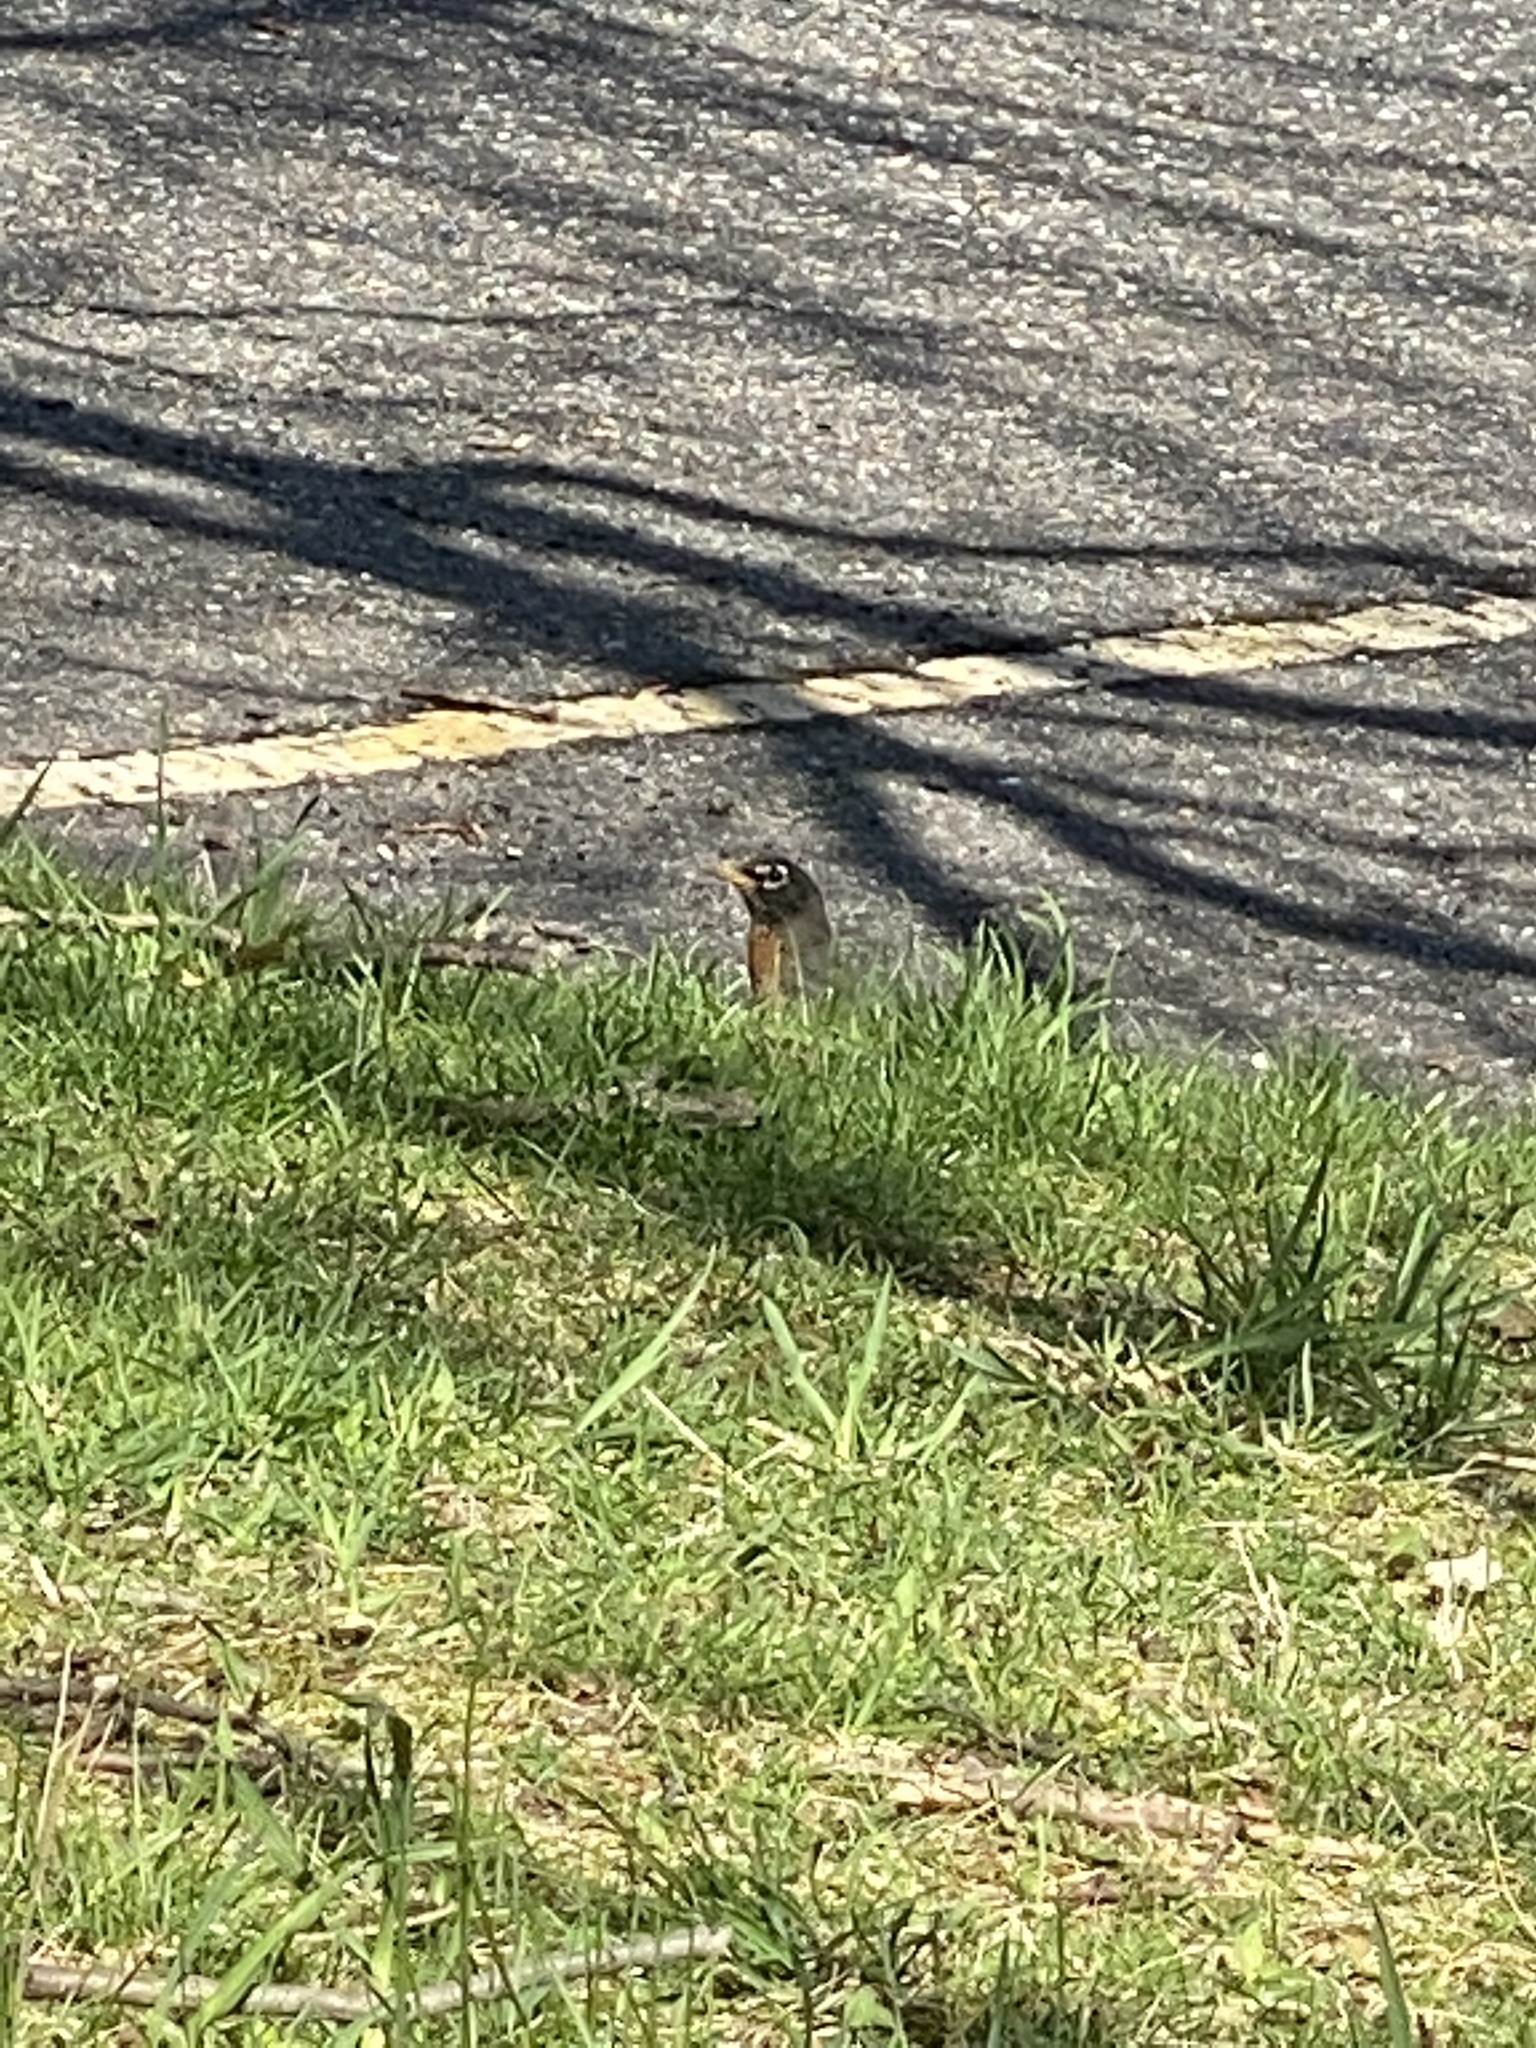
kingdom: Animalia
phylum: Chordata
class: Aves
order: Passeriformes
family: Turdidae
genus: Turdus
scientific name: Turdus migratorius
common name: American robin
